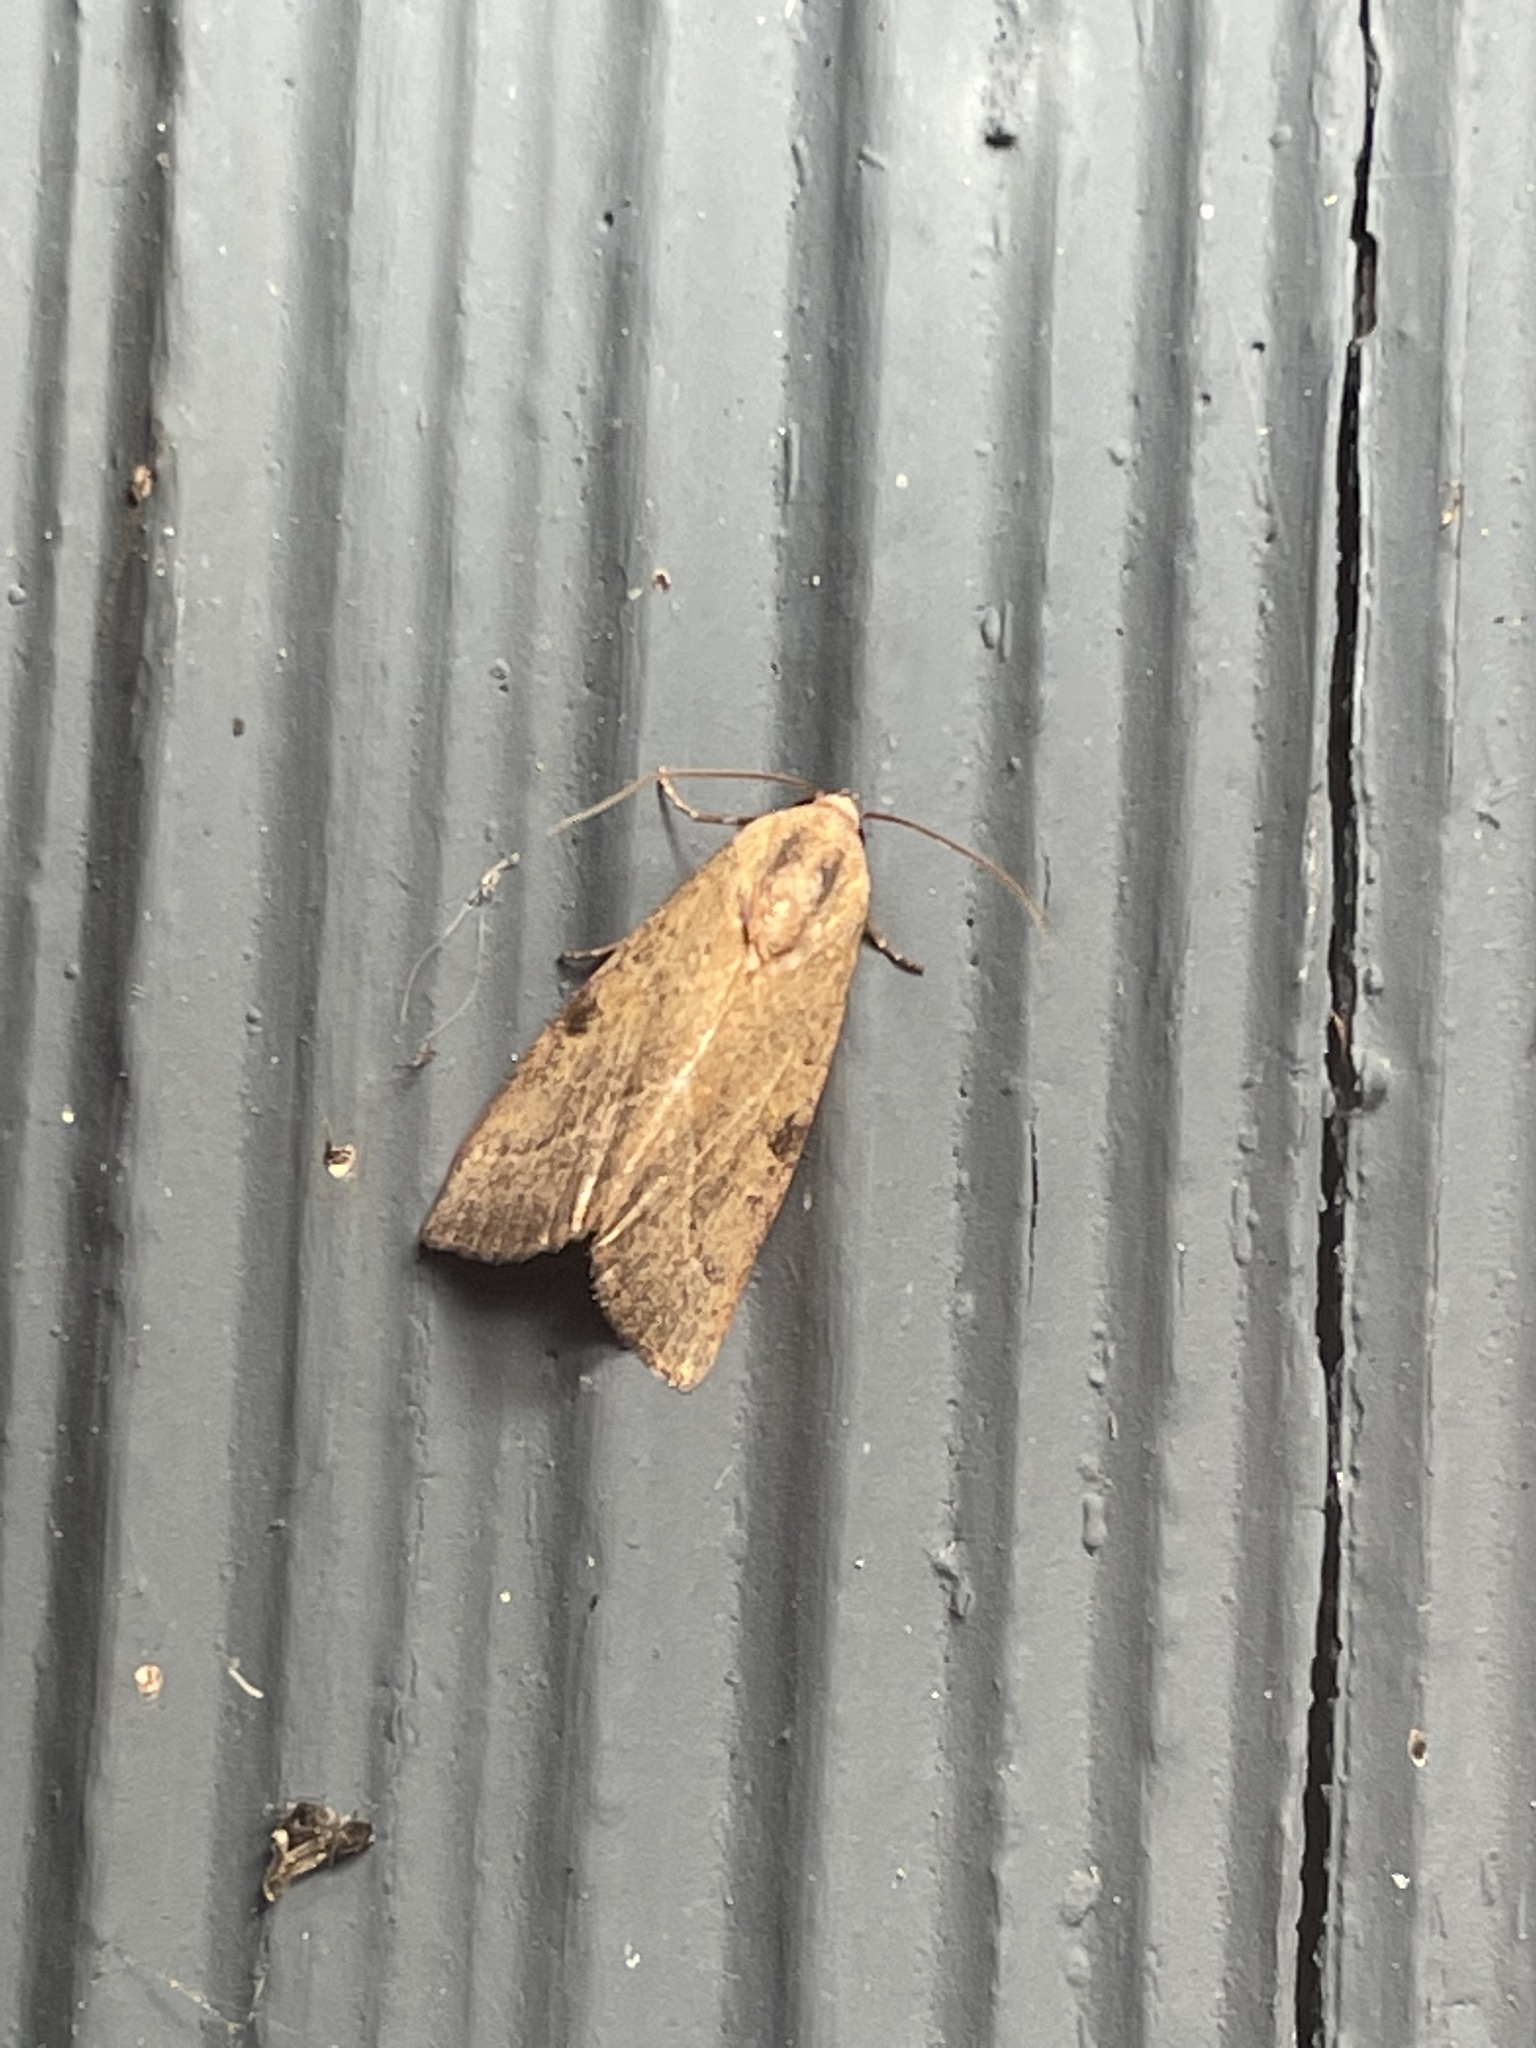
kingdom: Animalia
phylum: Arthropoda
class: Insecta
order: Lepidoptera
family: Noctuidae
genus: Galgula
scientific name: Galgula partita
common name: Wedgeling
